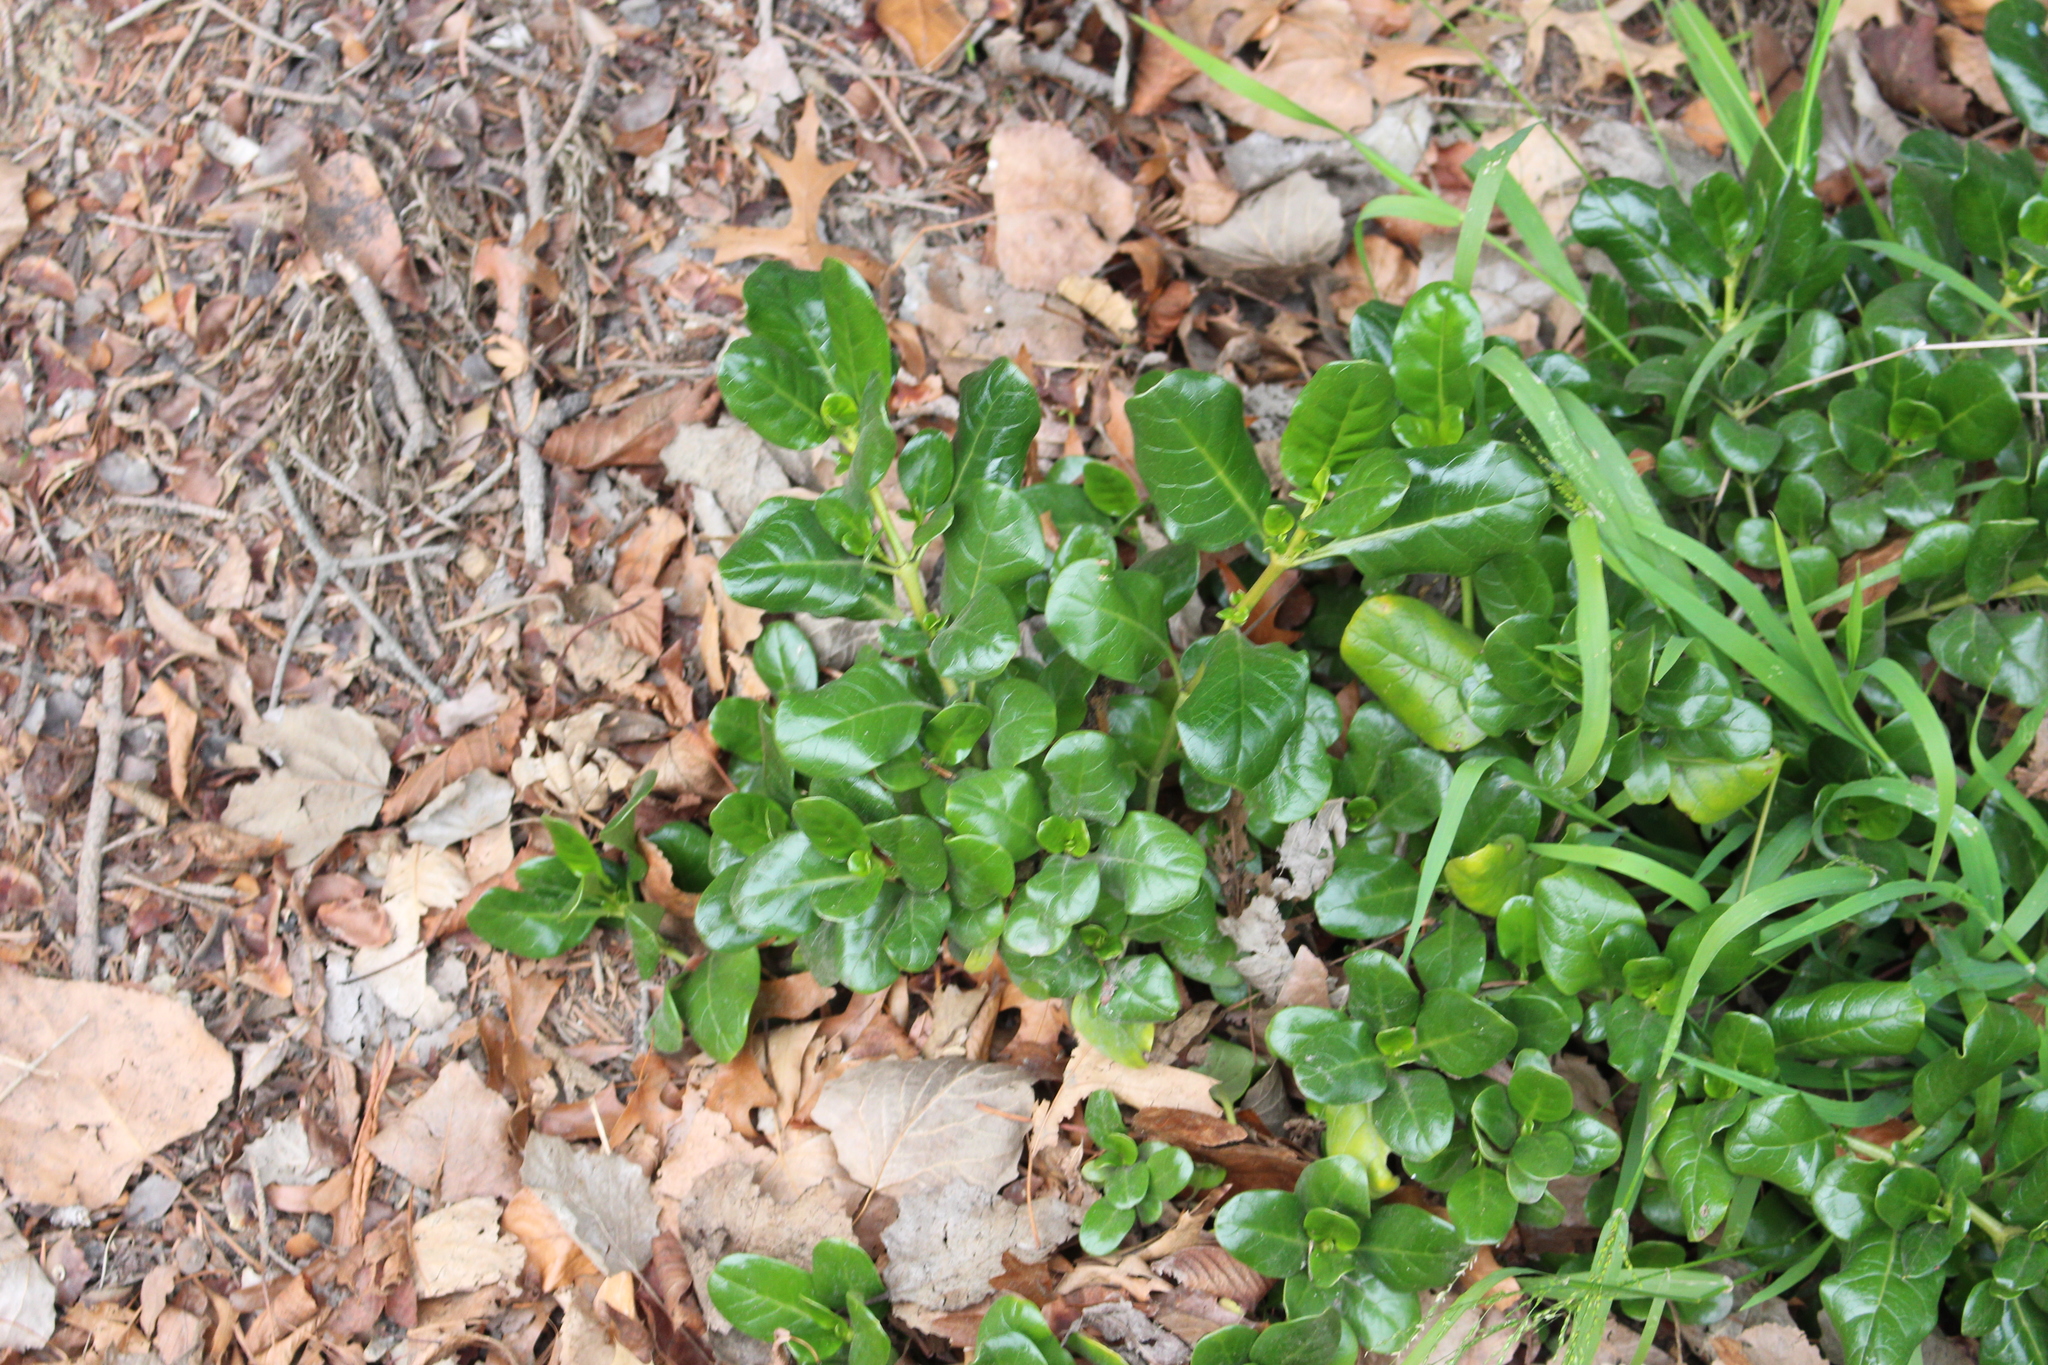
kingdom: Plantae
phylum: Tracheophyta
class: Magnoliopsida
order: Gentianales
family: Rubiaceae
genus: Coprosma
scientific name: Coprosma repens
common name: Tree bedstraw
